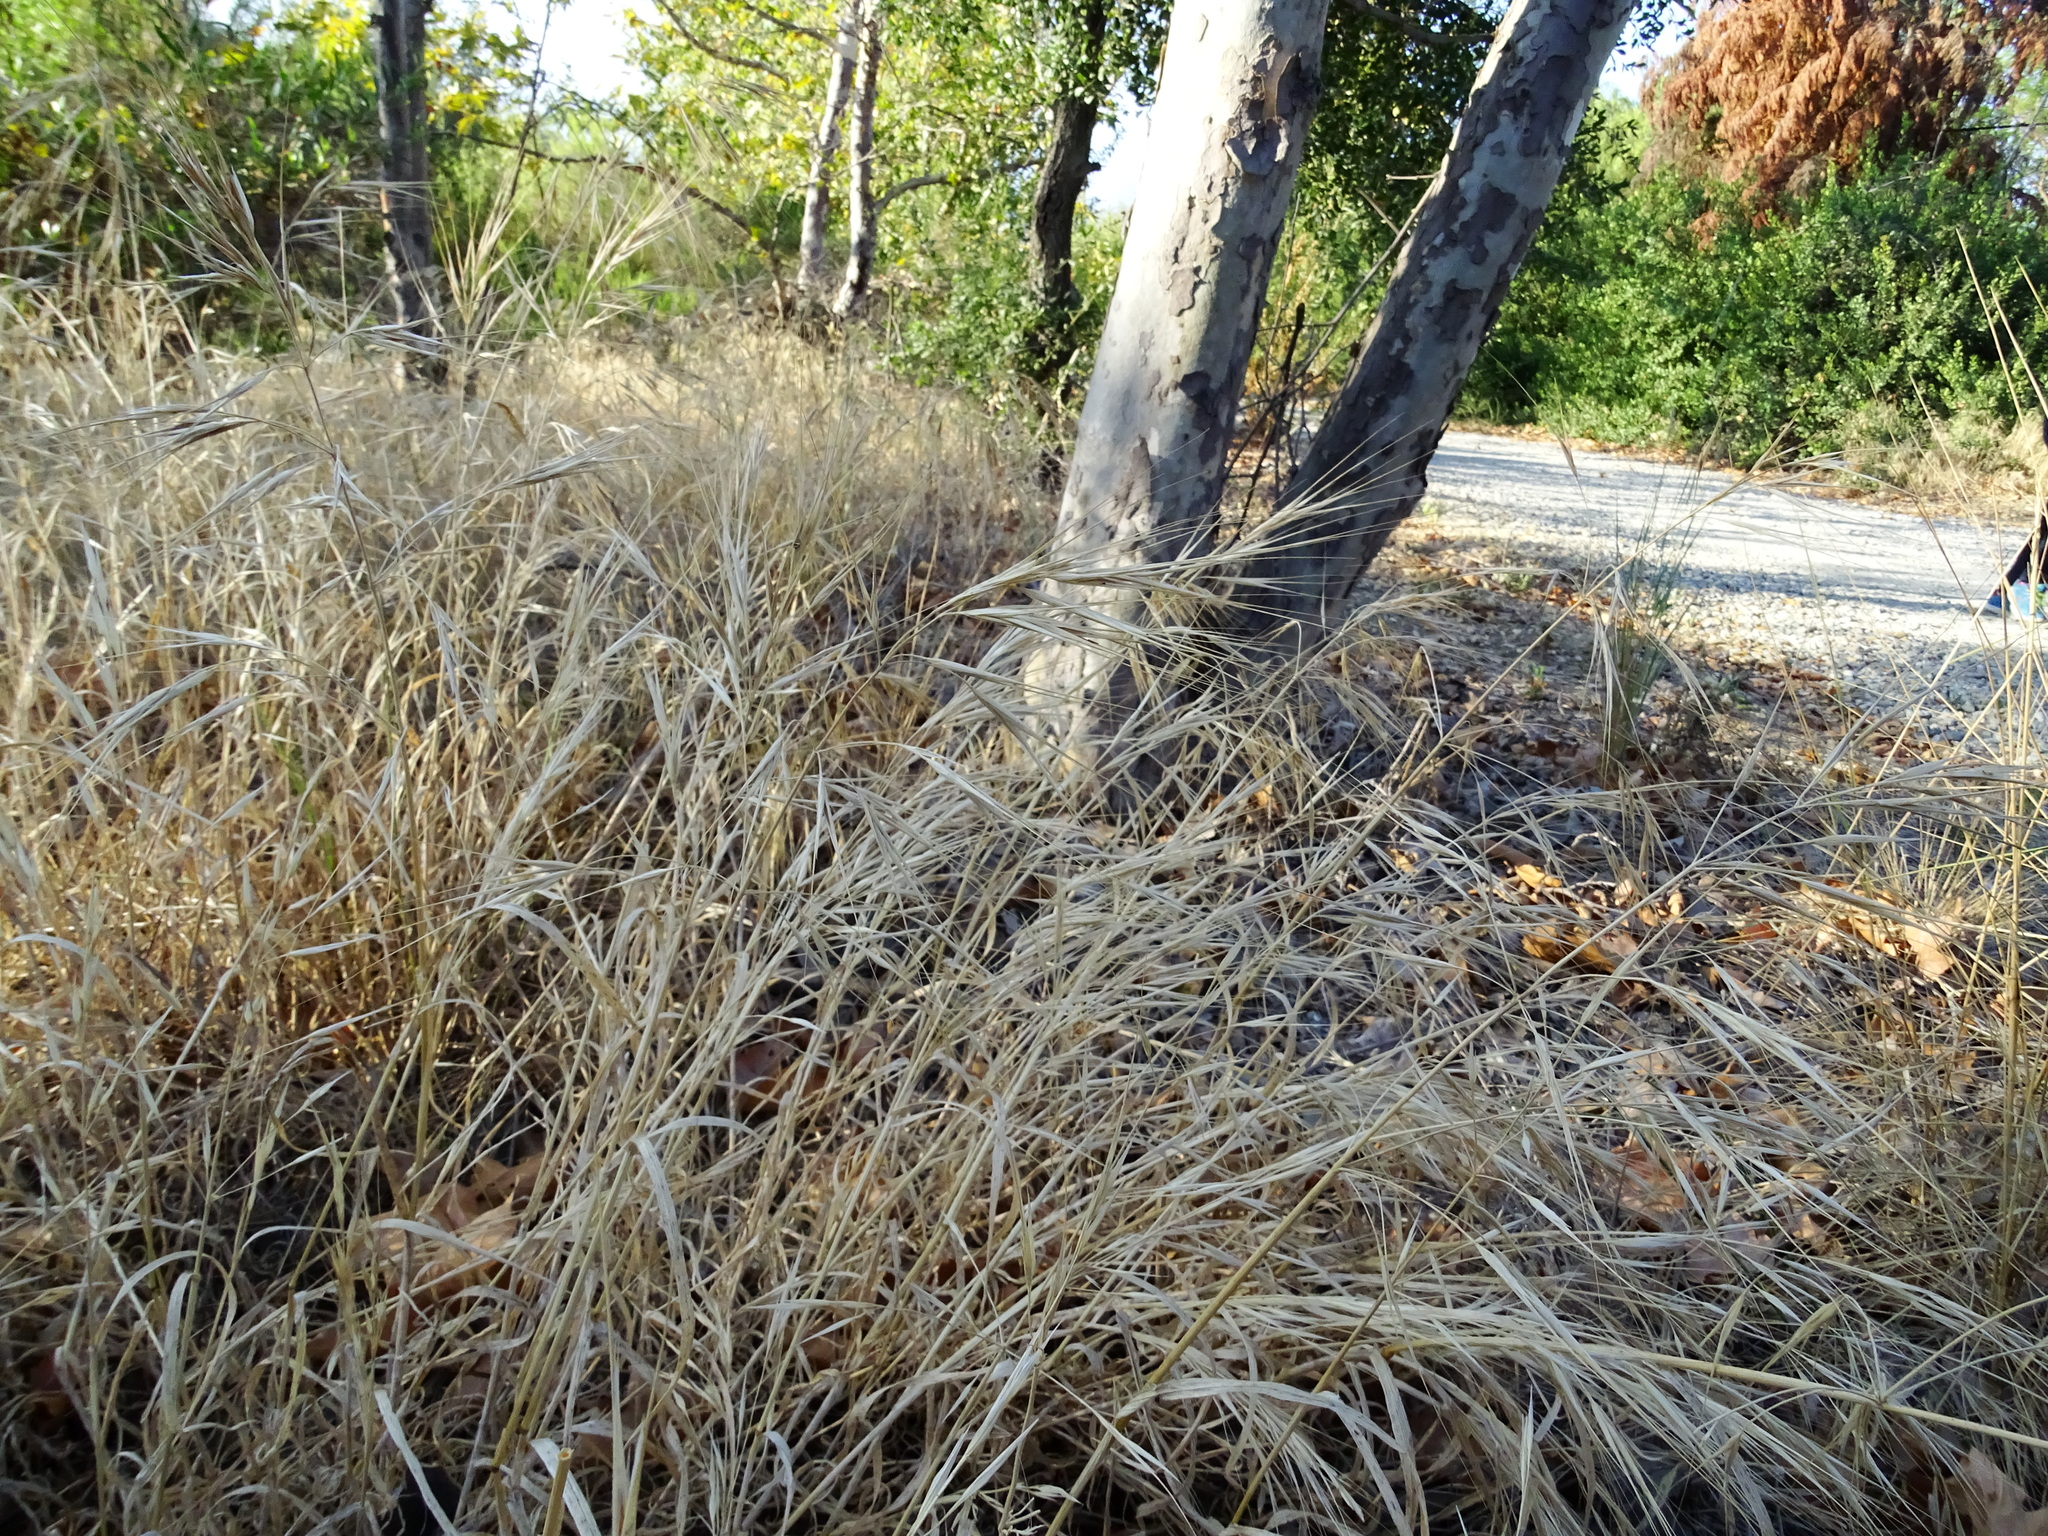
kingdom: Plantae
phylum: Tracheophyta
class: Liliopsida
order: Poales
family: Poaceae
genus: Bromus
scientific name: Bromus diandrus
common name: Ripgut brome
